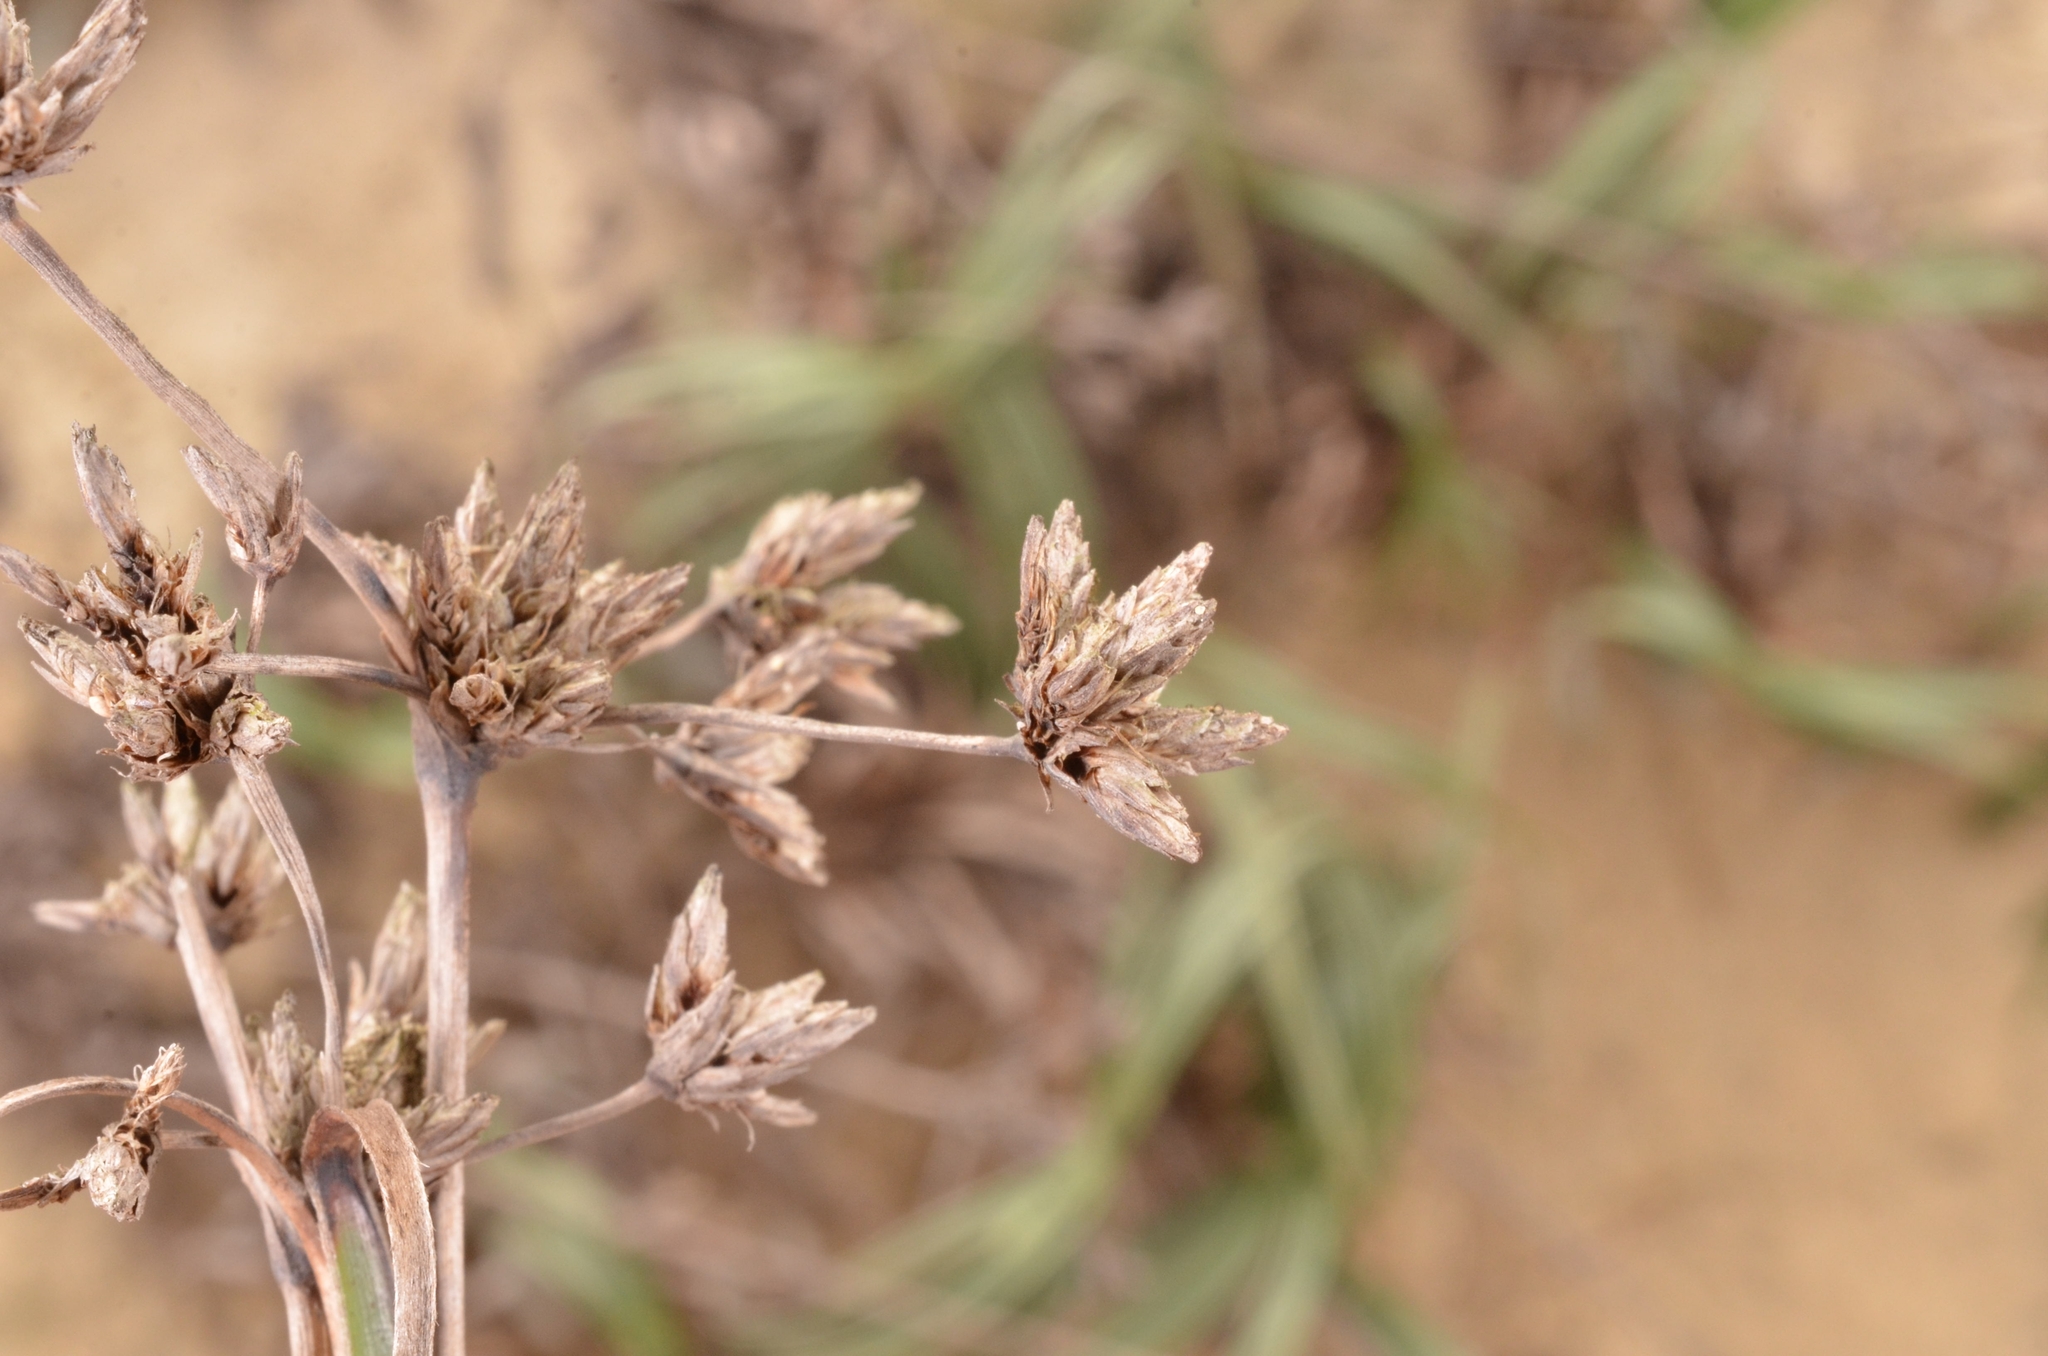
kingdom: Plantae
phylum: Tracheophyta
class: Liliopsida
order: Poales
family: Cyperaceae
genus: Fimbristylis
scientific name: Fimbristylis sericea
